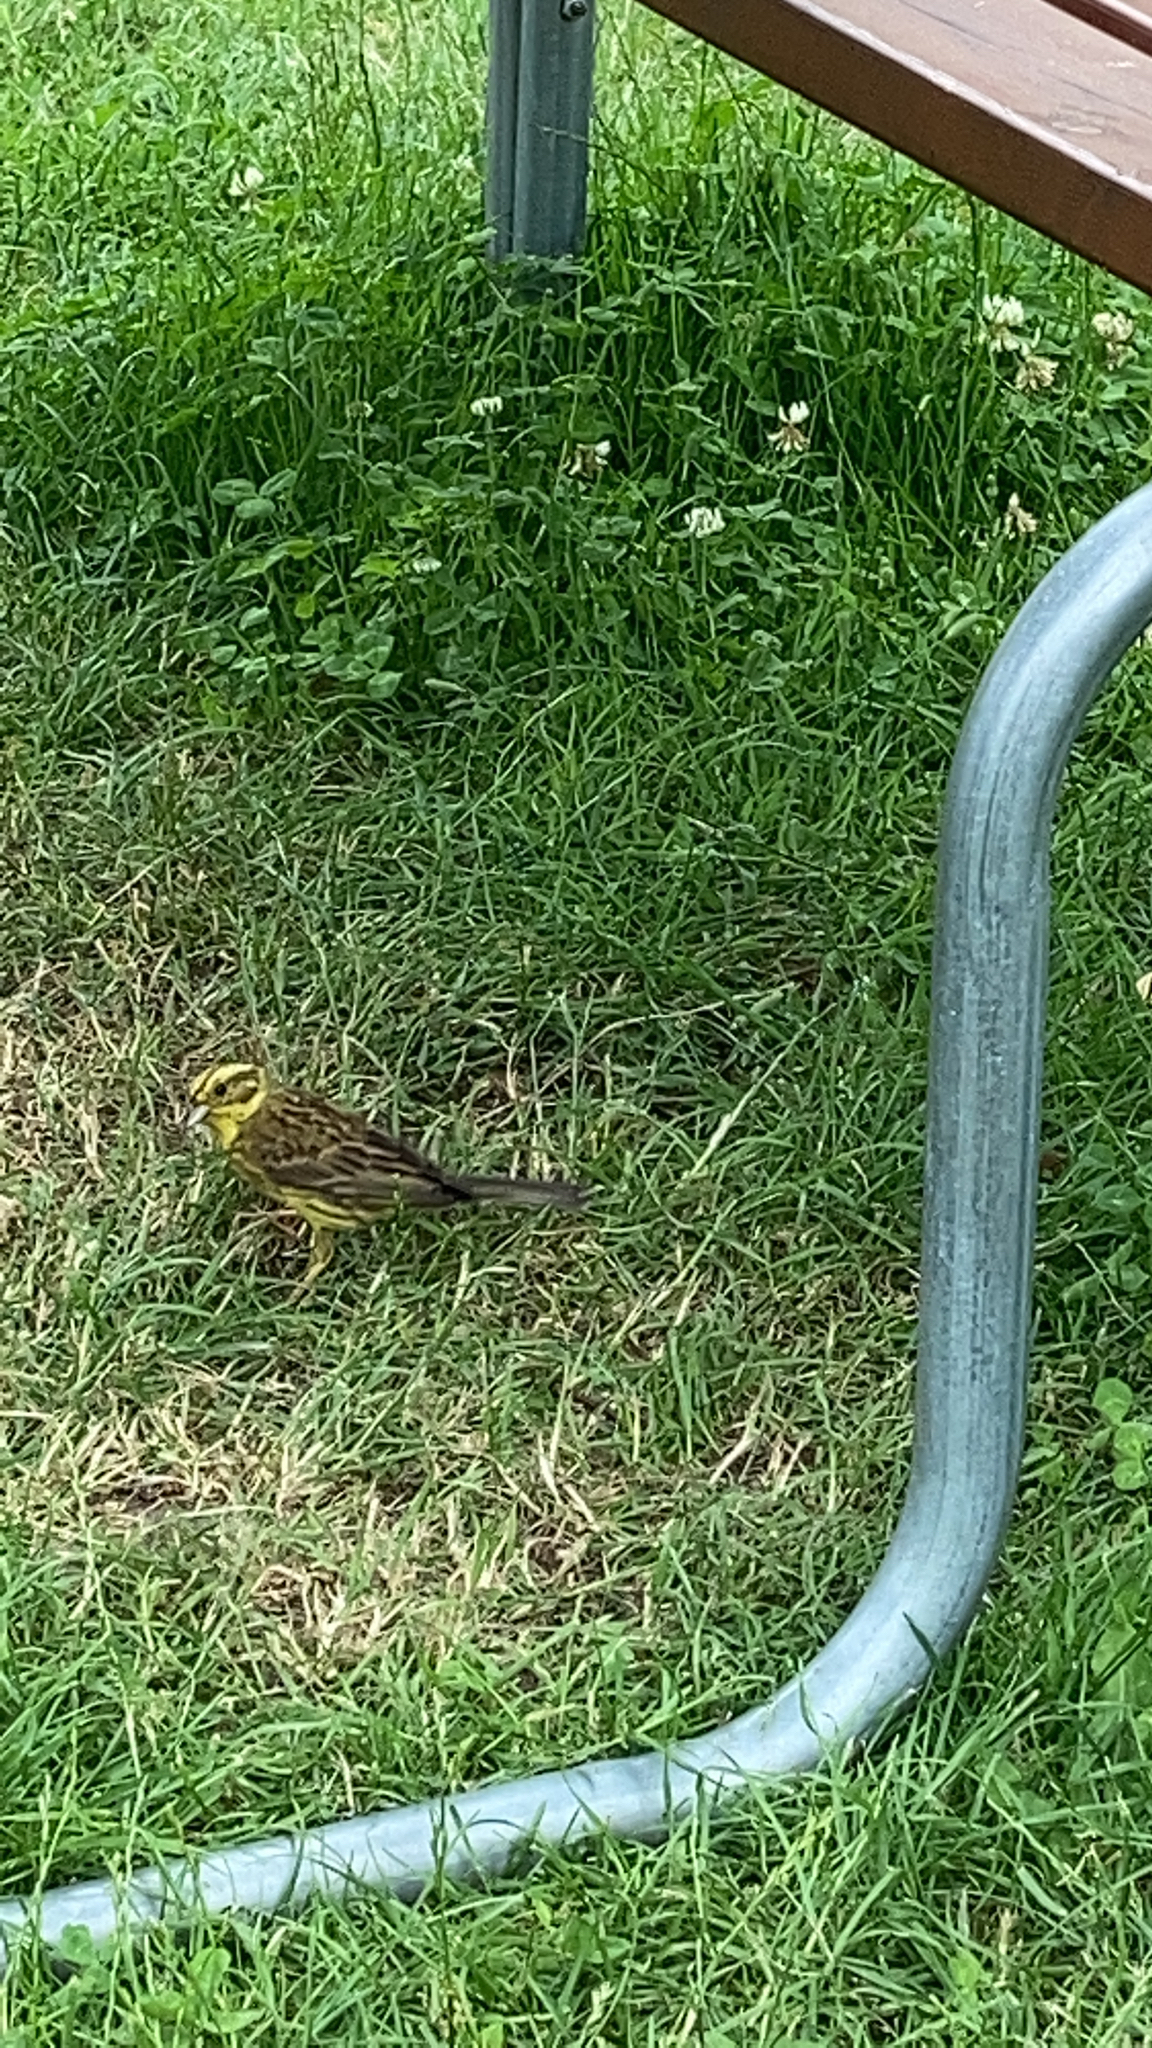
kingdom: Animalia
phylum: Chordata
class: Aves
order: Passeriformes
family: Emberizidae
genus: Emberiza
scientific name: Emberiza citrinella
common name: Yellowhammer
